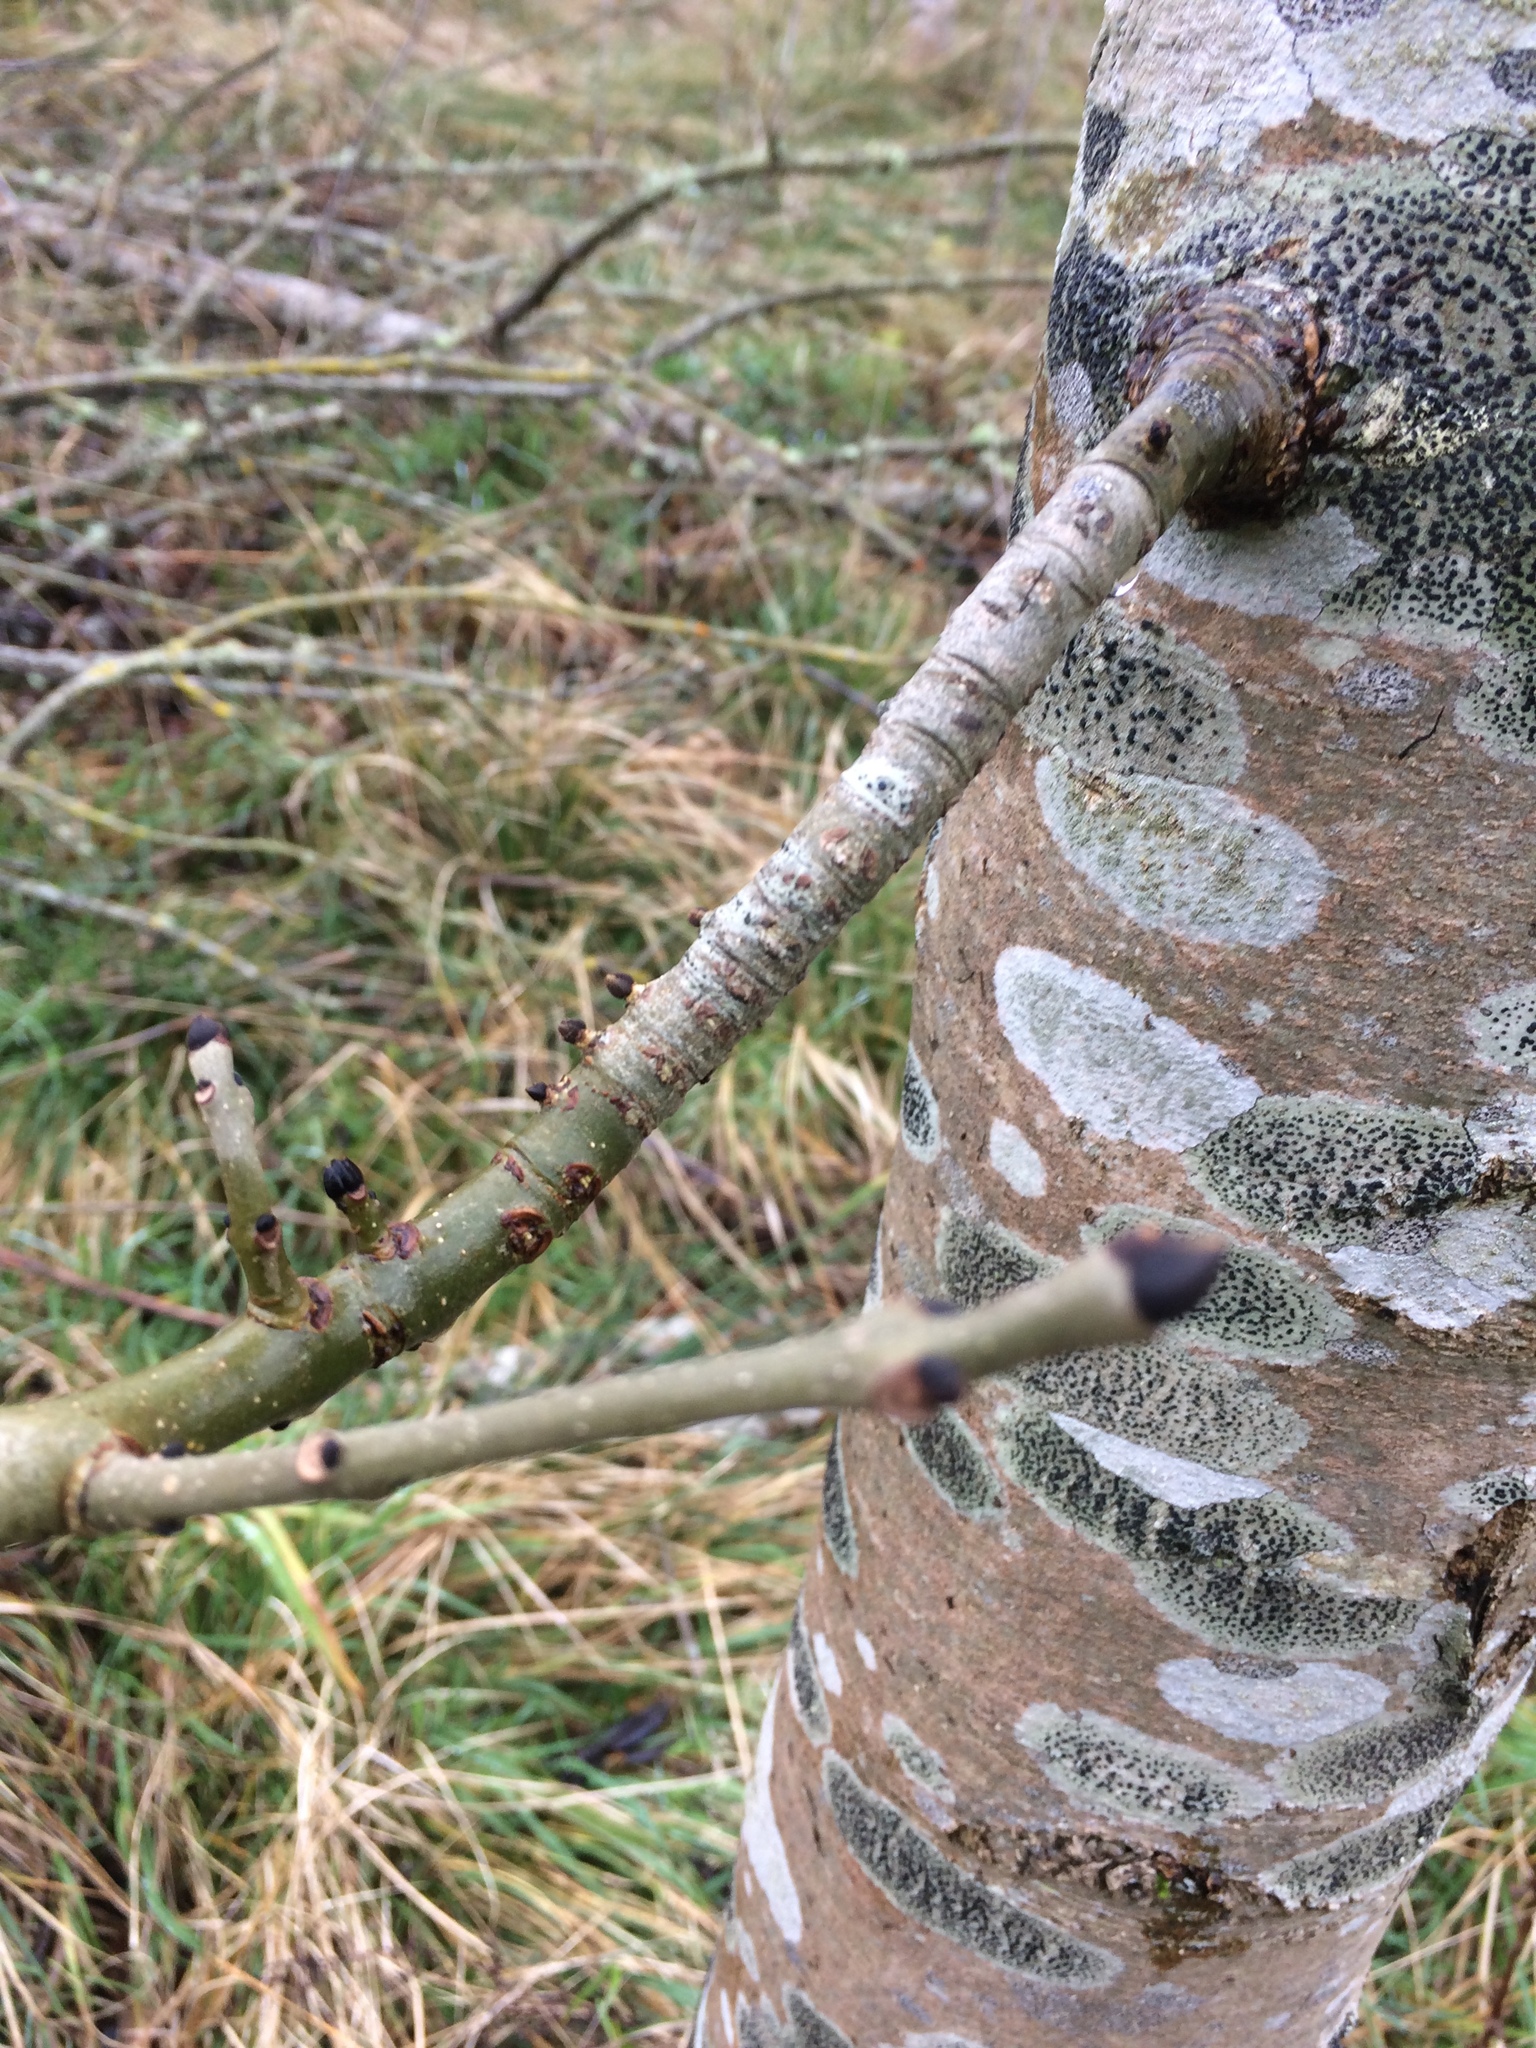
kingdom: Plantae
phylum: Tracheophyta
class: Magnoliopsida
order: Lamiales
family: Oleaceae
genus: Fraxinus
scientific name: Fraxinus excelsior
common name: European ash
